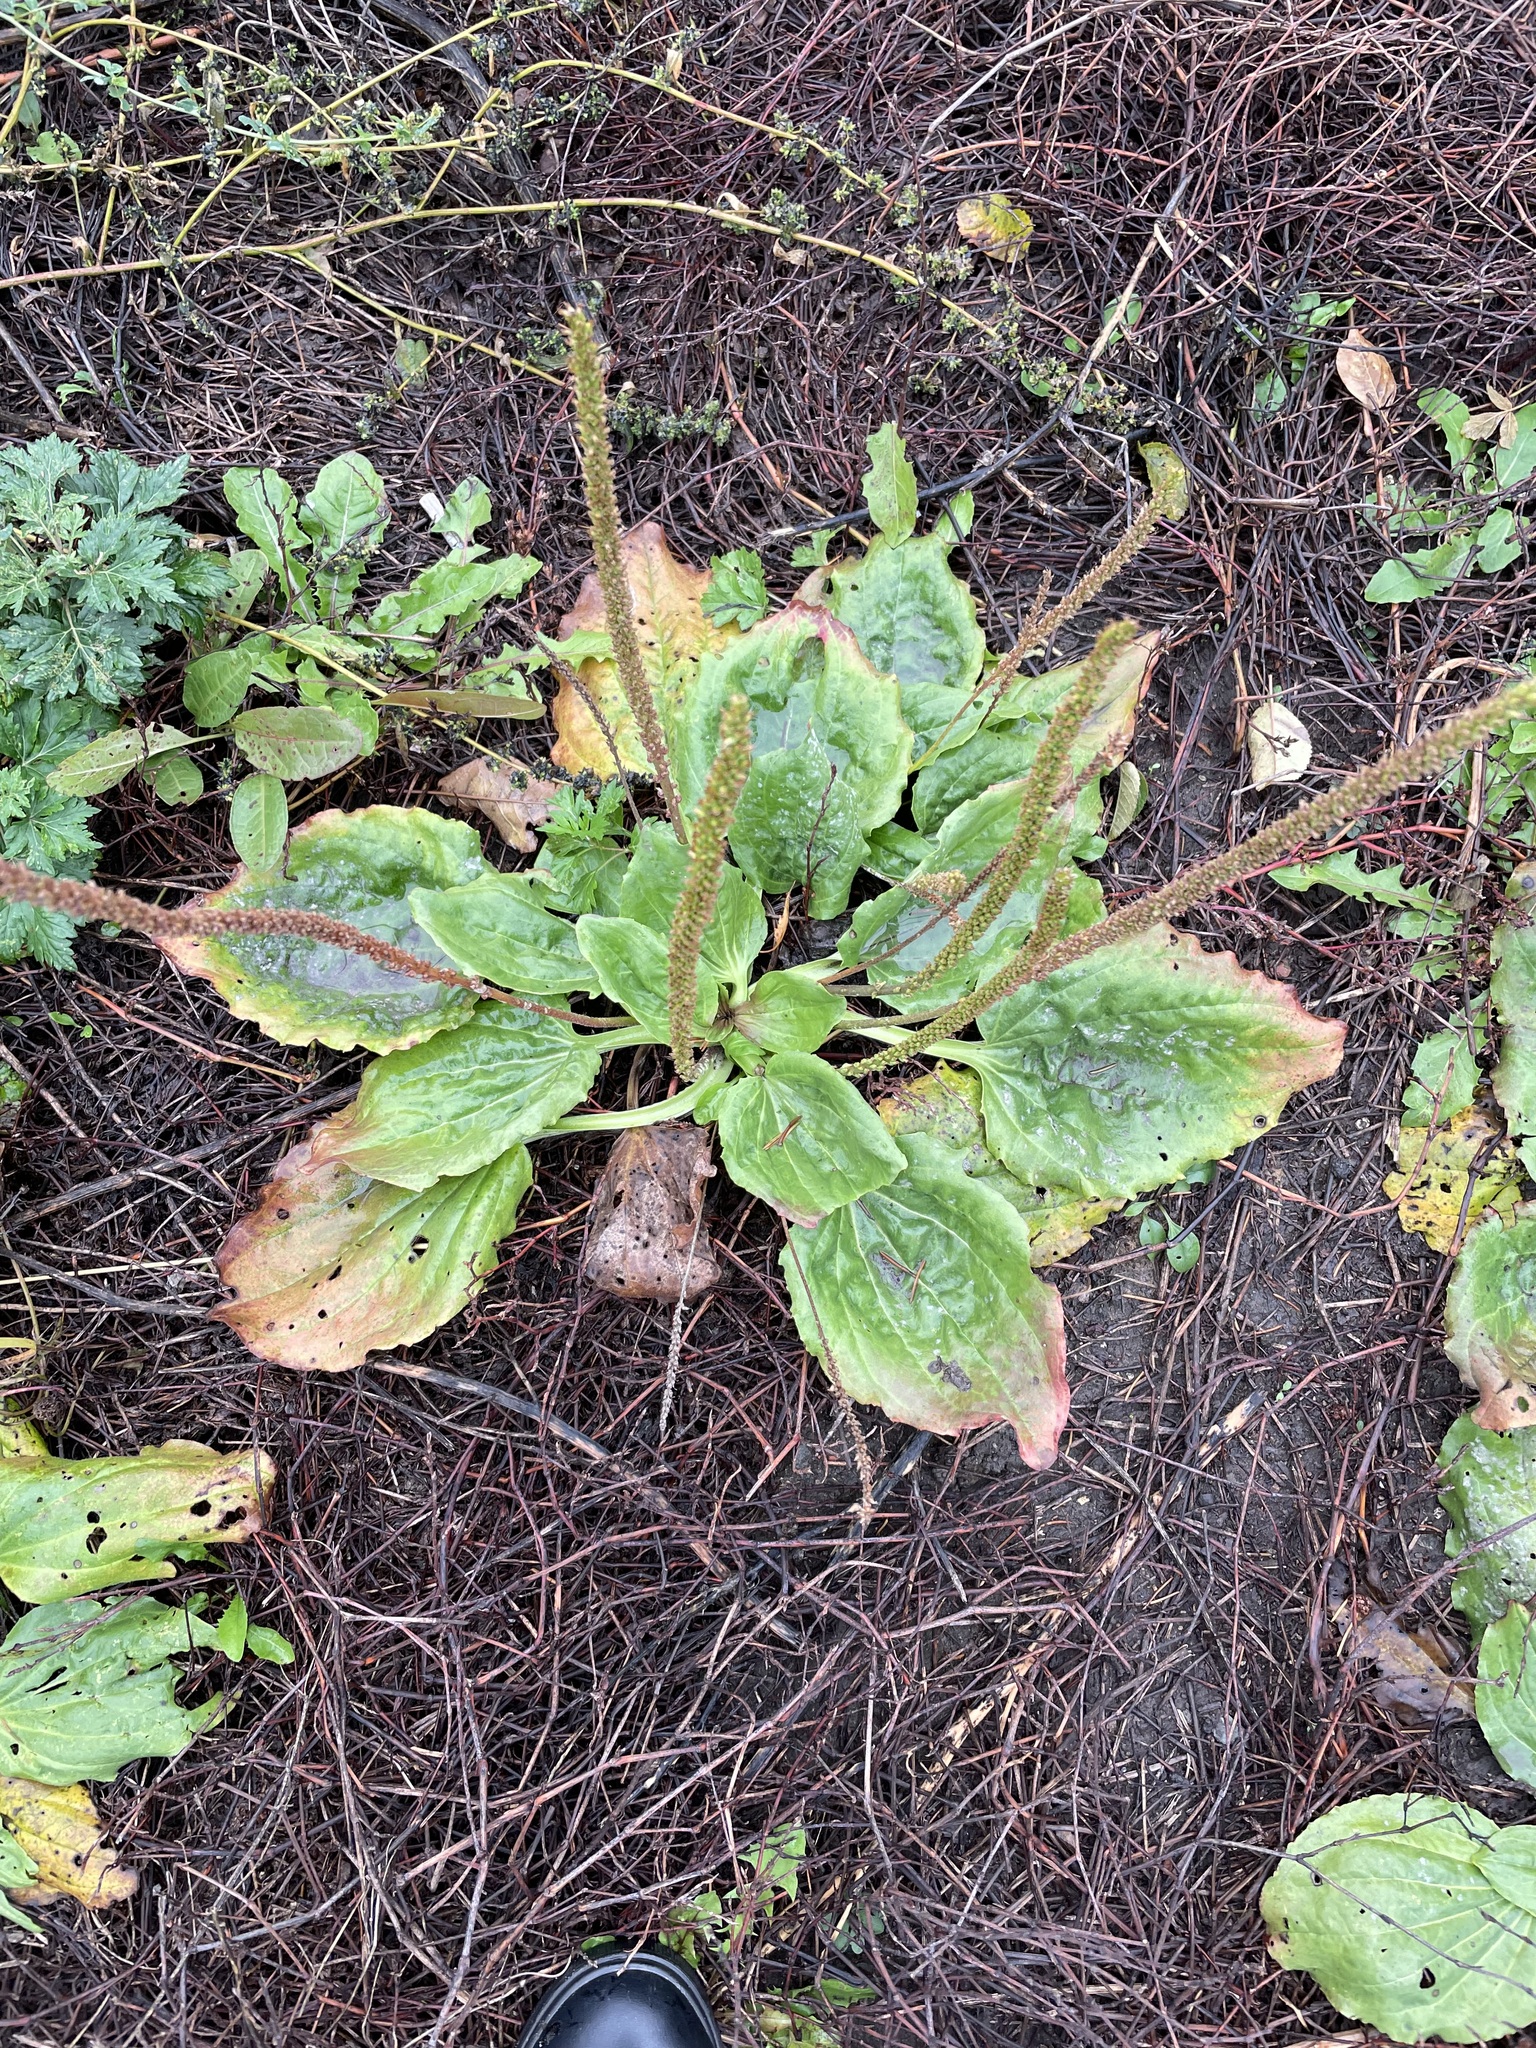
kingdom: Plantae
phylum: Tracheophyta
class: Magnoliopsida
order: Lamiales
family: Plantaginaceae
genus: Plantago
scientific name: Plantago major
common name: Common plantain
